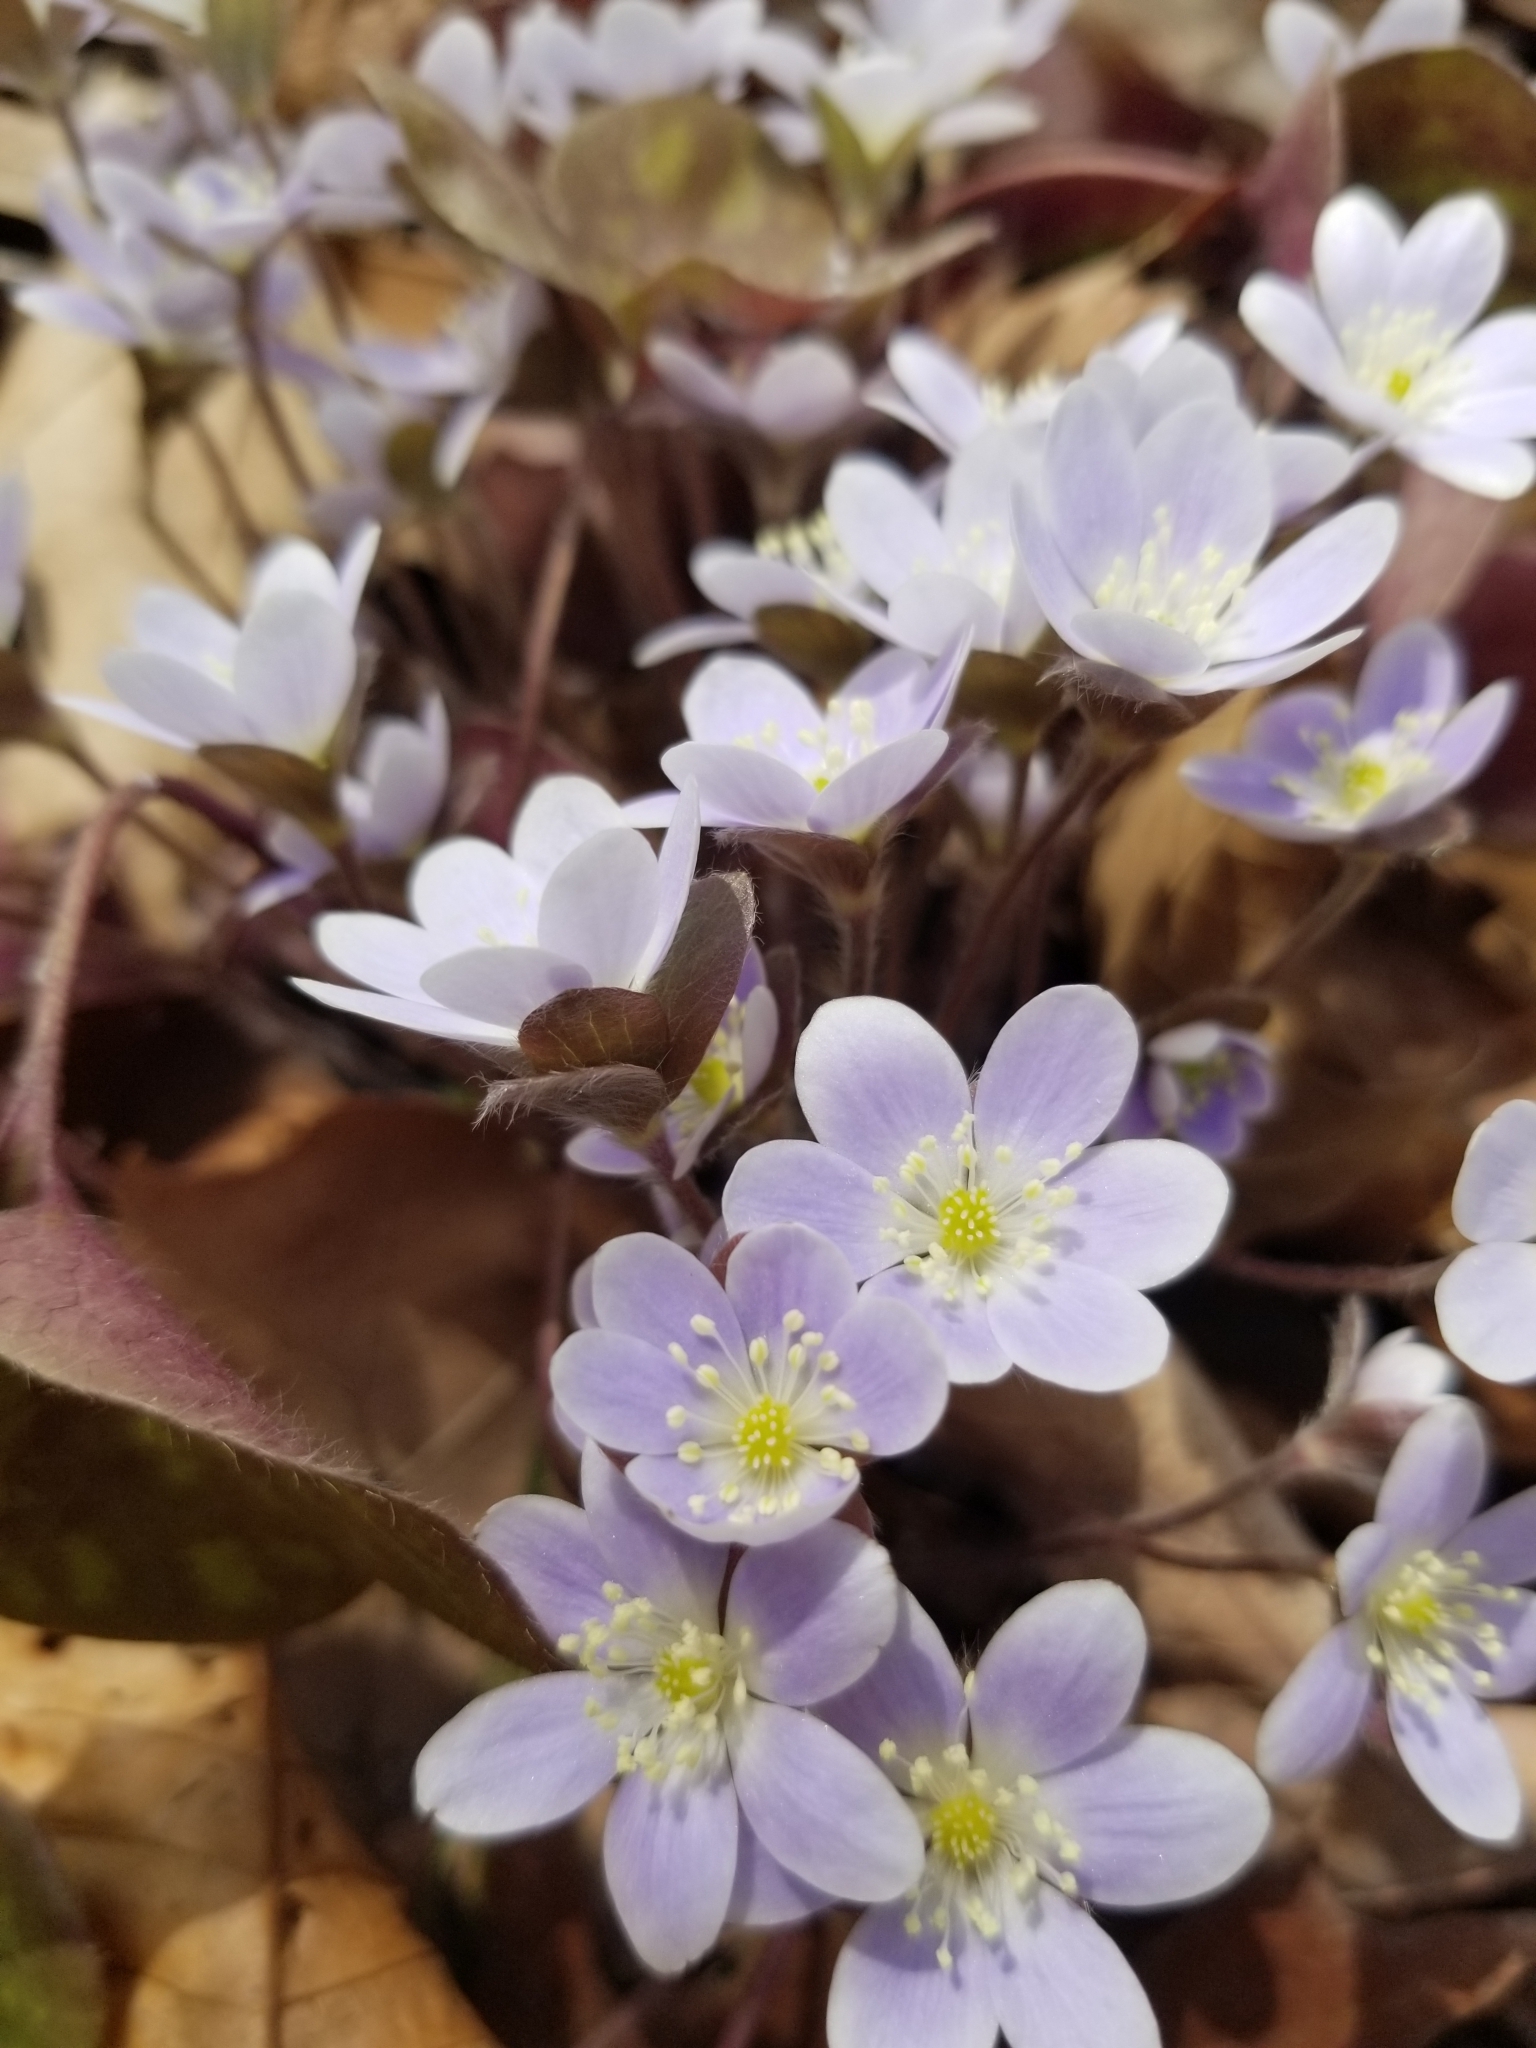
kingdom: Plantae
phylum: Tracheophyta
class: Magnoliopsida
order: Ranunculales
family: Ranunculaceae
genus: Hepatica
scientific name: Hepatica americana
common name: American hepatica
